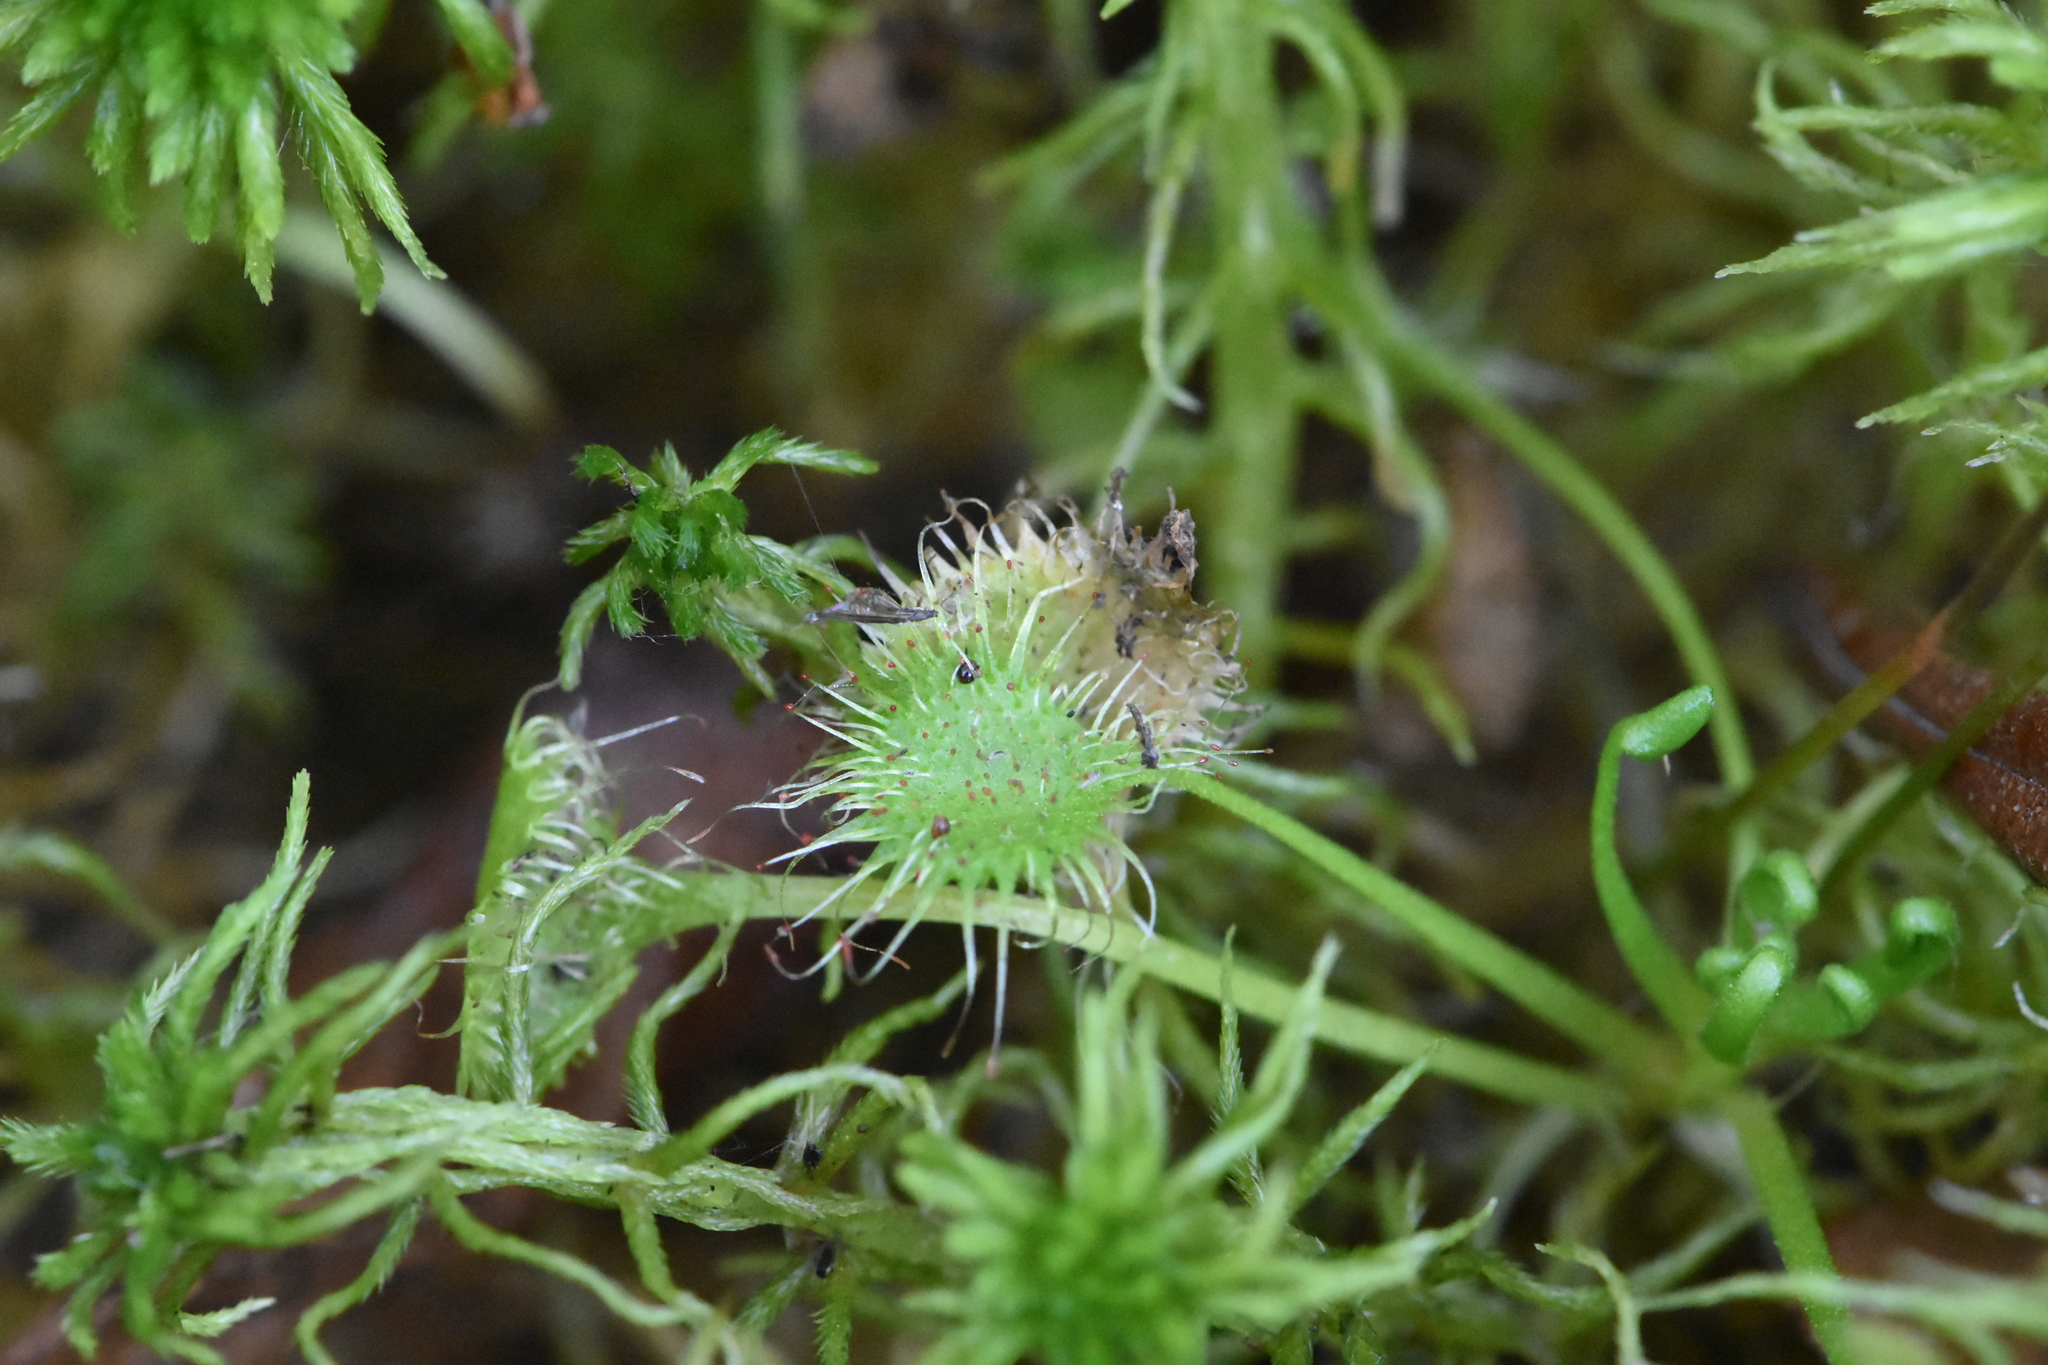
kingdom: Plantae
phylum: Tracheophyta
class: Magnoliopsida
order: Caryophyllales
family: Droseraceae
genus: Drosera
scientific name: Drosera rotundifolia
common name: Round-leaved sundew
